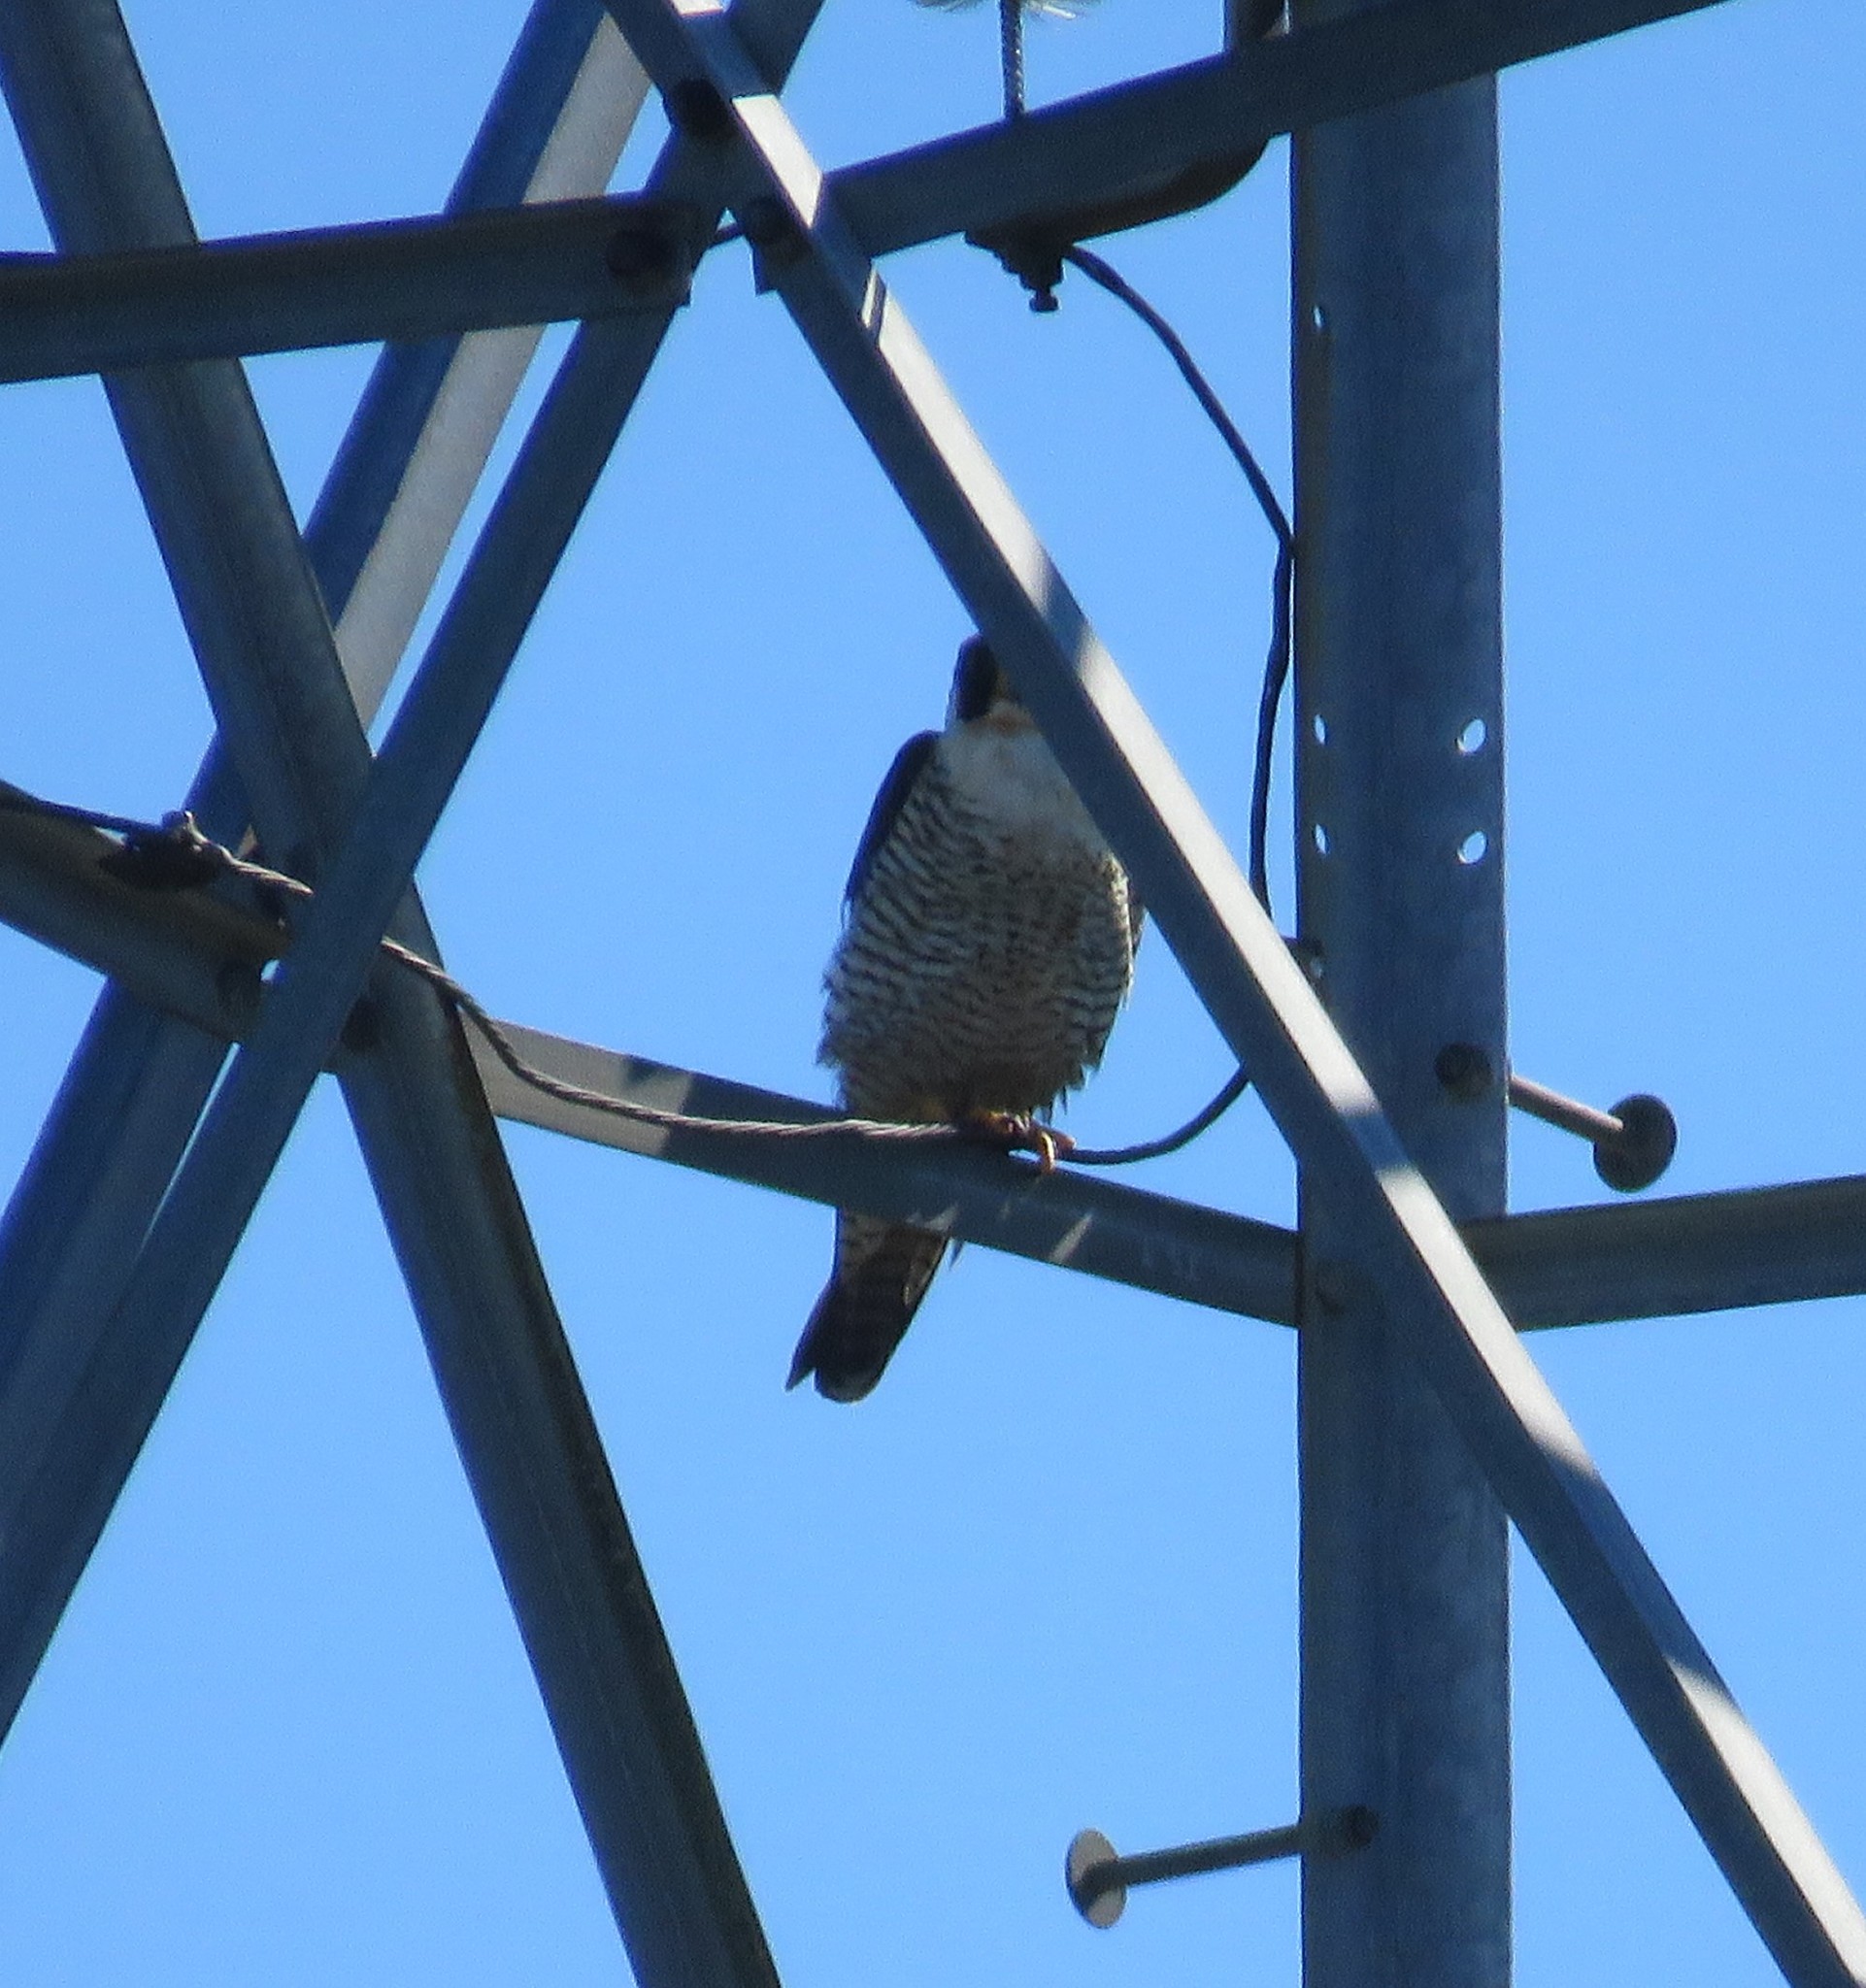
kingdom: Animalia
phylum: Chordata
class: Aves
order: Falconiformes
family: Falconidae
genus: Falco
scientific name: Falco peregrinus
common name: Peregrine falcon
